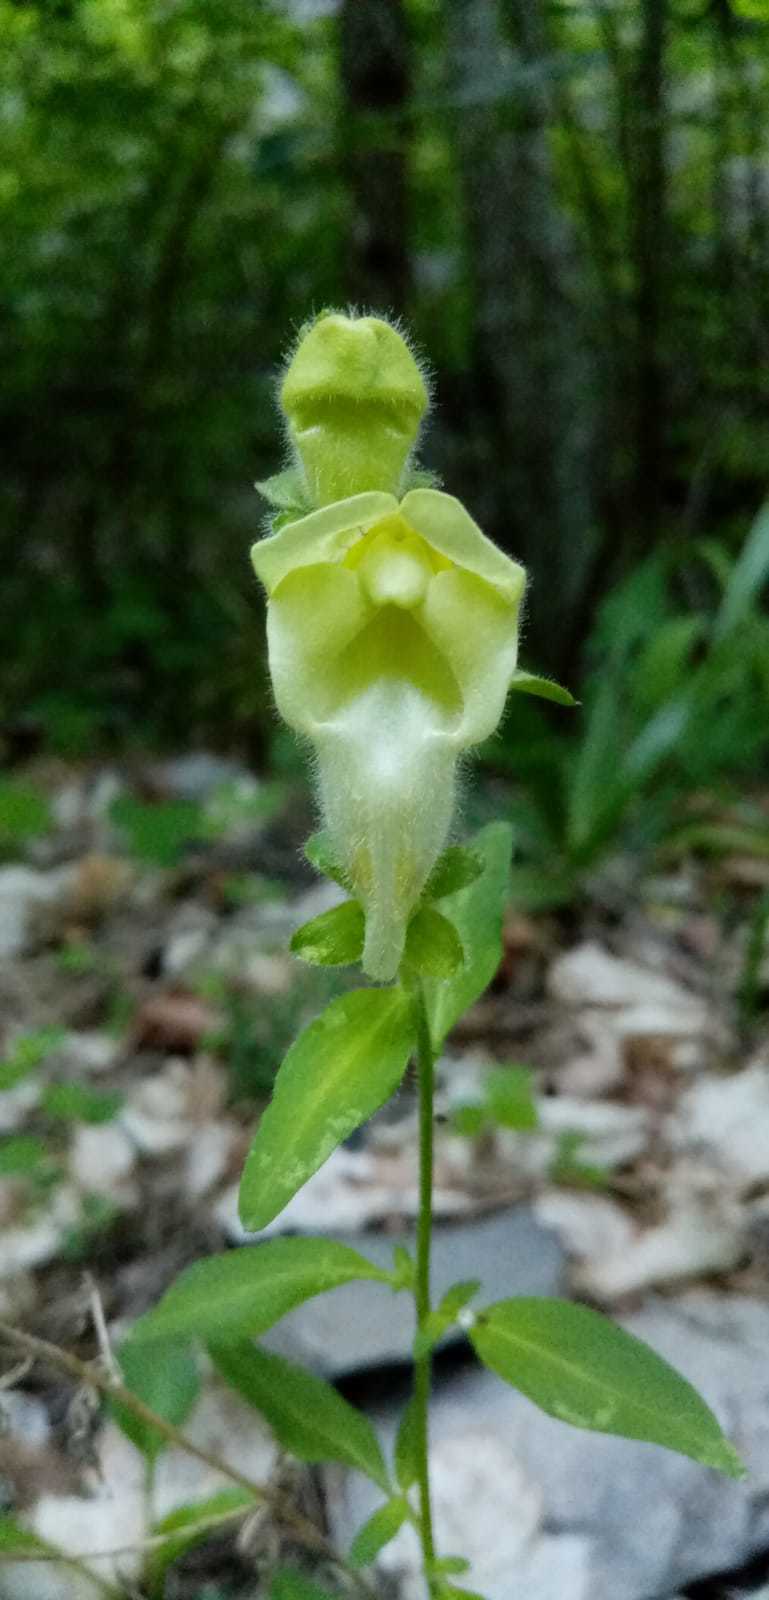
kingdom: Plantae
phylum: Tracheophyta
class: Magnoliopsida
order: Lamiales
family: Plantaginaceae
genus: Antirrhinum
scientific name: Antirrhinum latifolium
